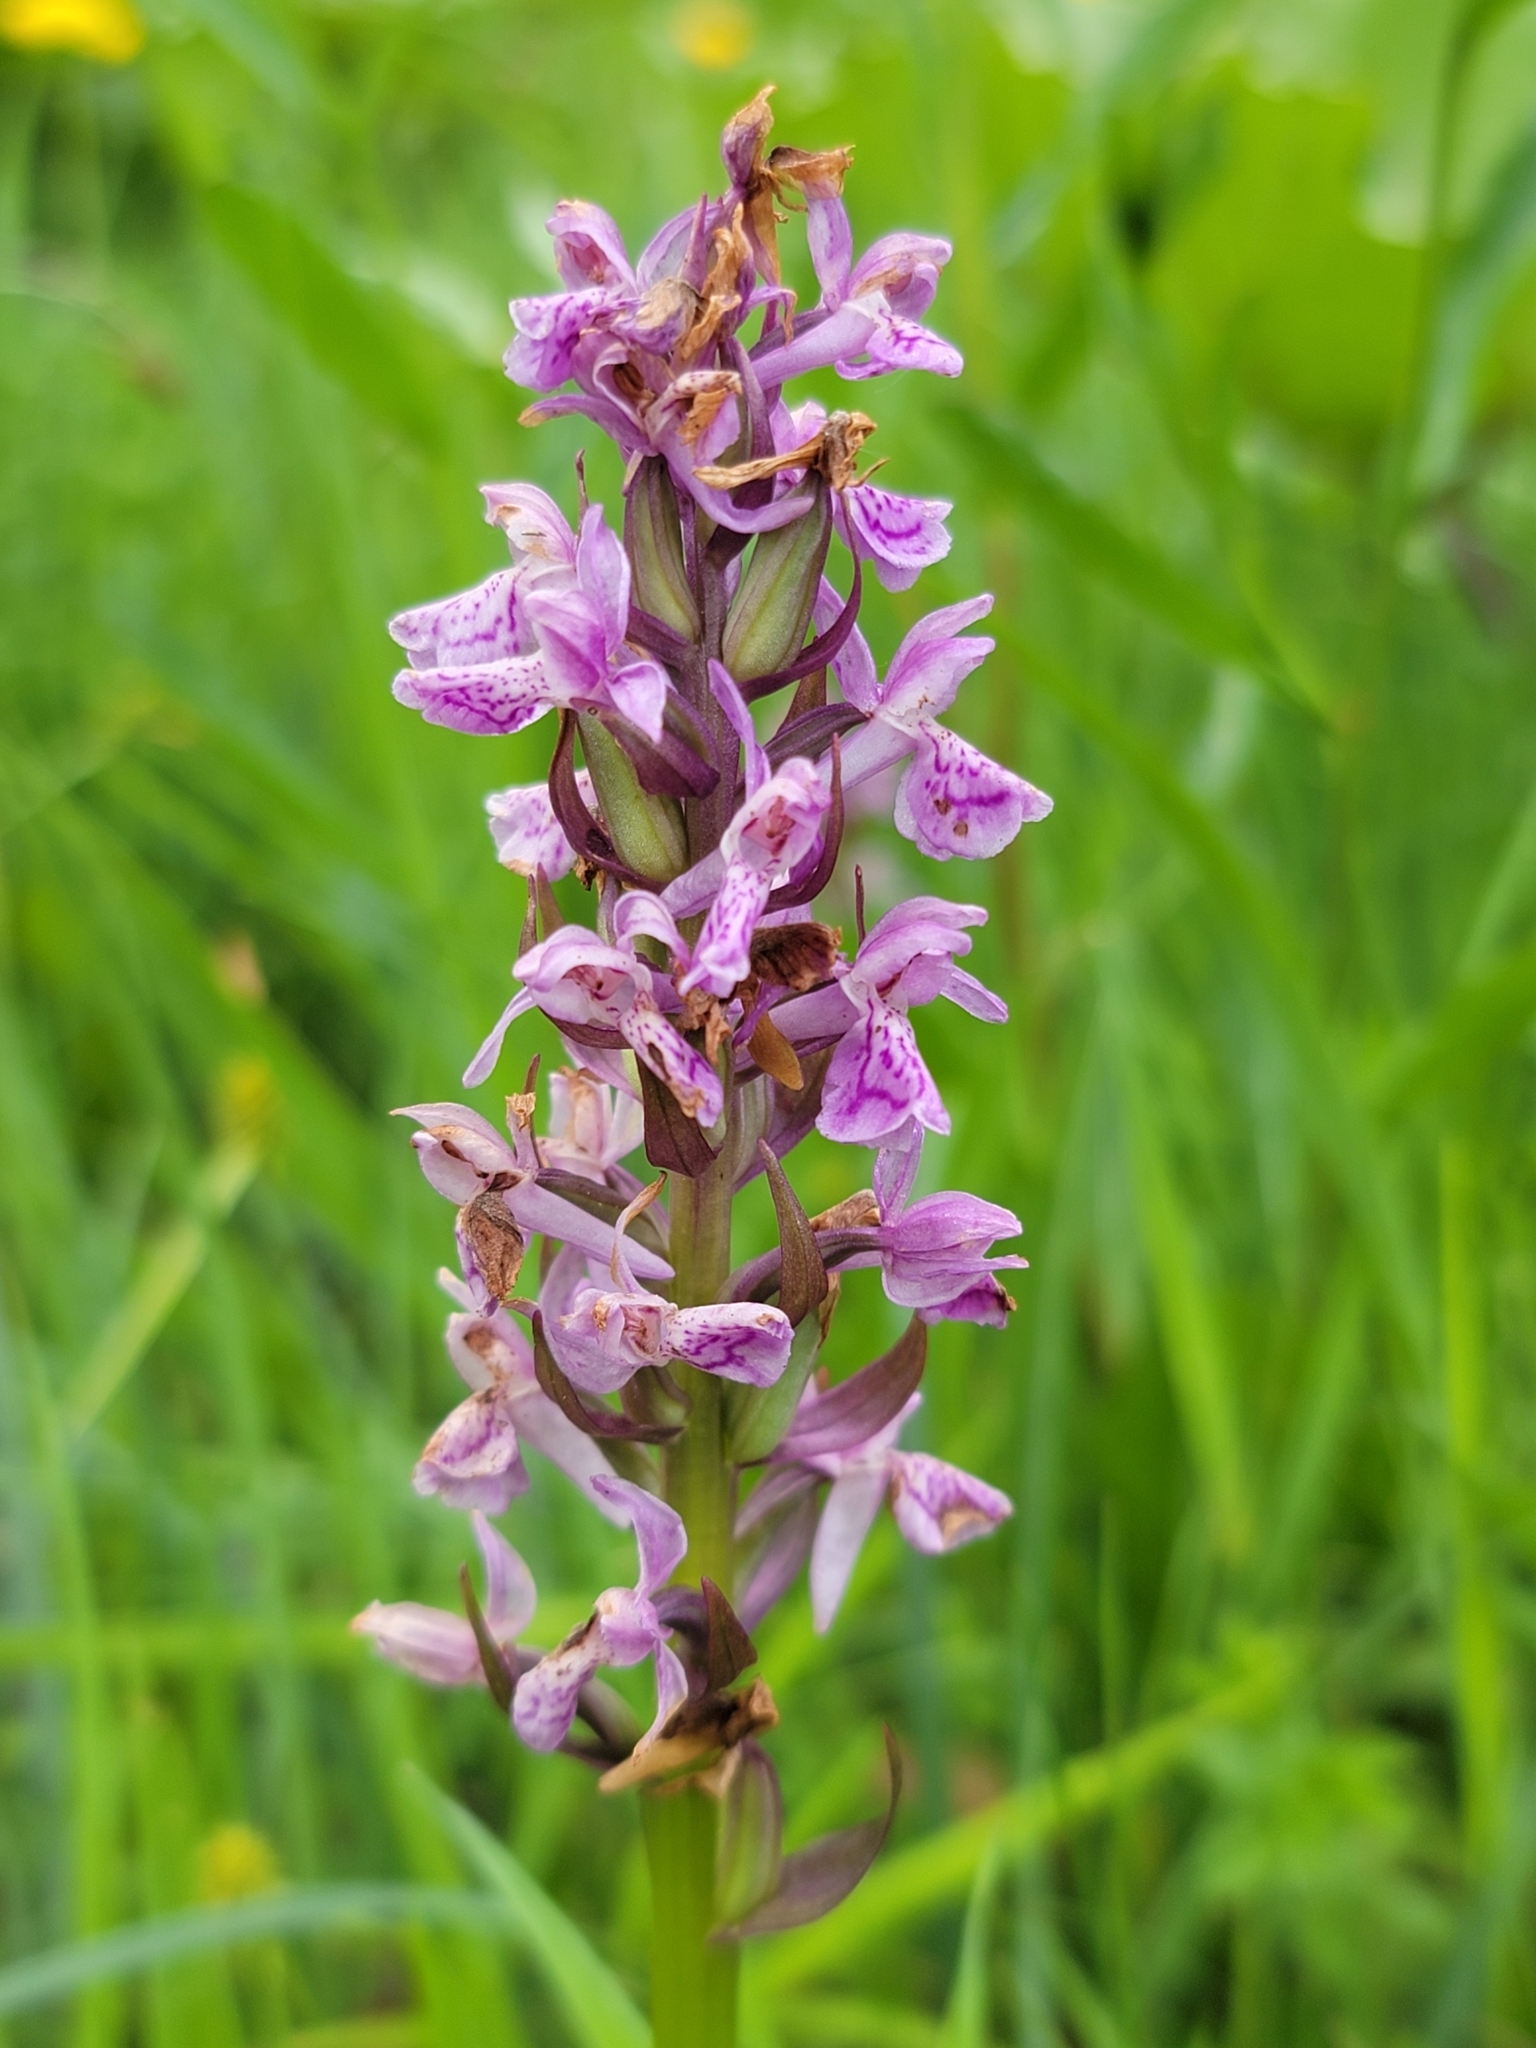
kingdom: Plantae
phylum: Tracheophyta
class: Liliopsida
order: Asparagales
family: Orchidaceae
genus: Dactylorhiza
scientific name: Dactylorhiza incarnata
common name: Early marsh-orchid
